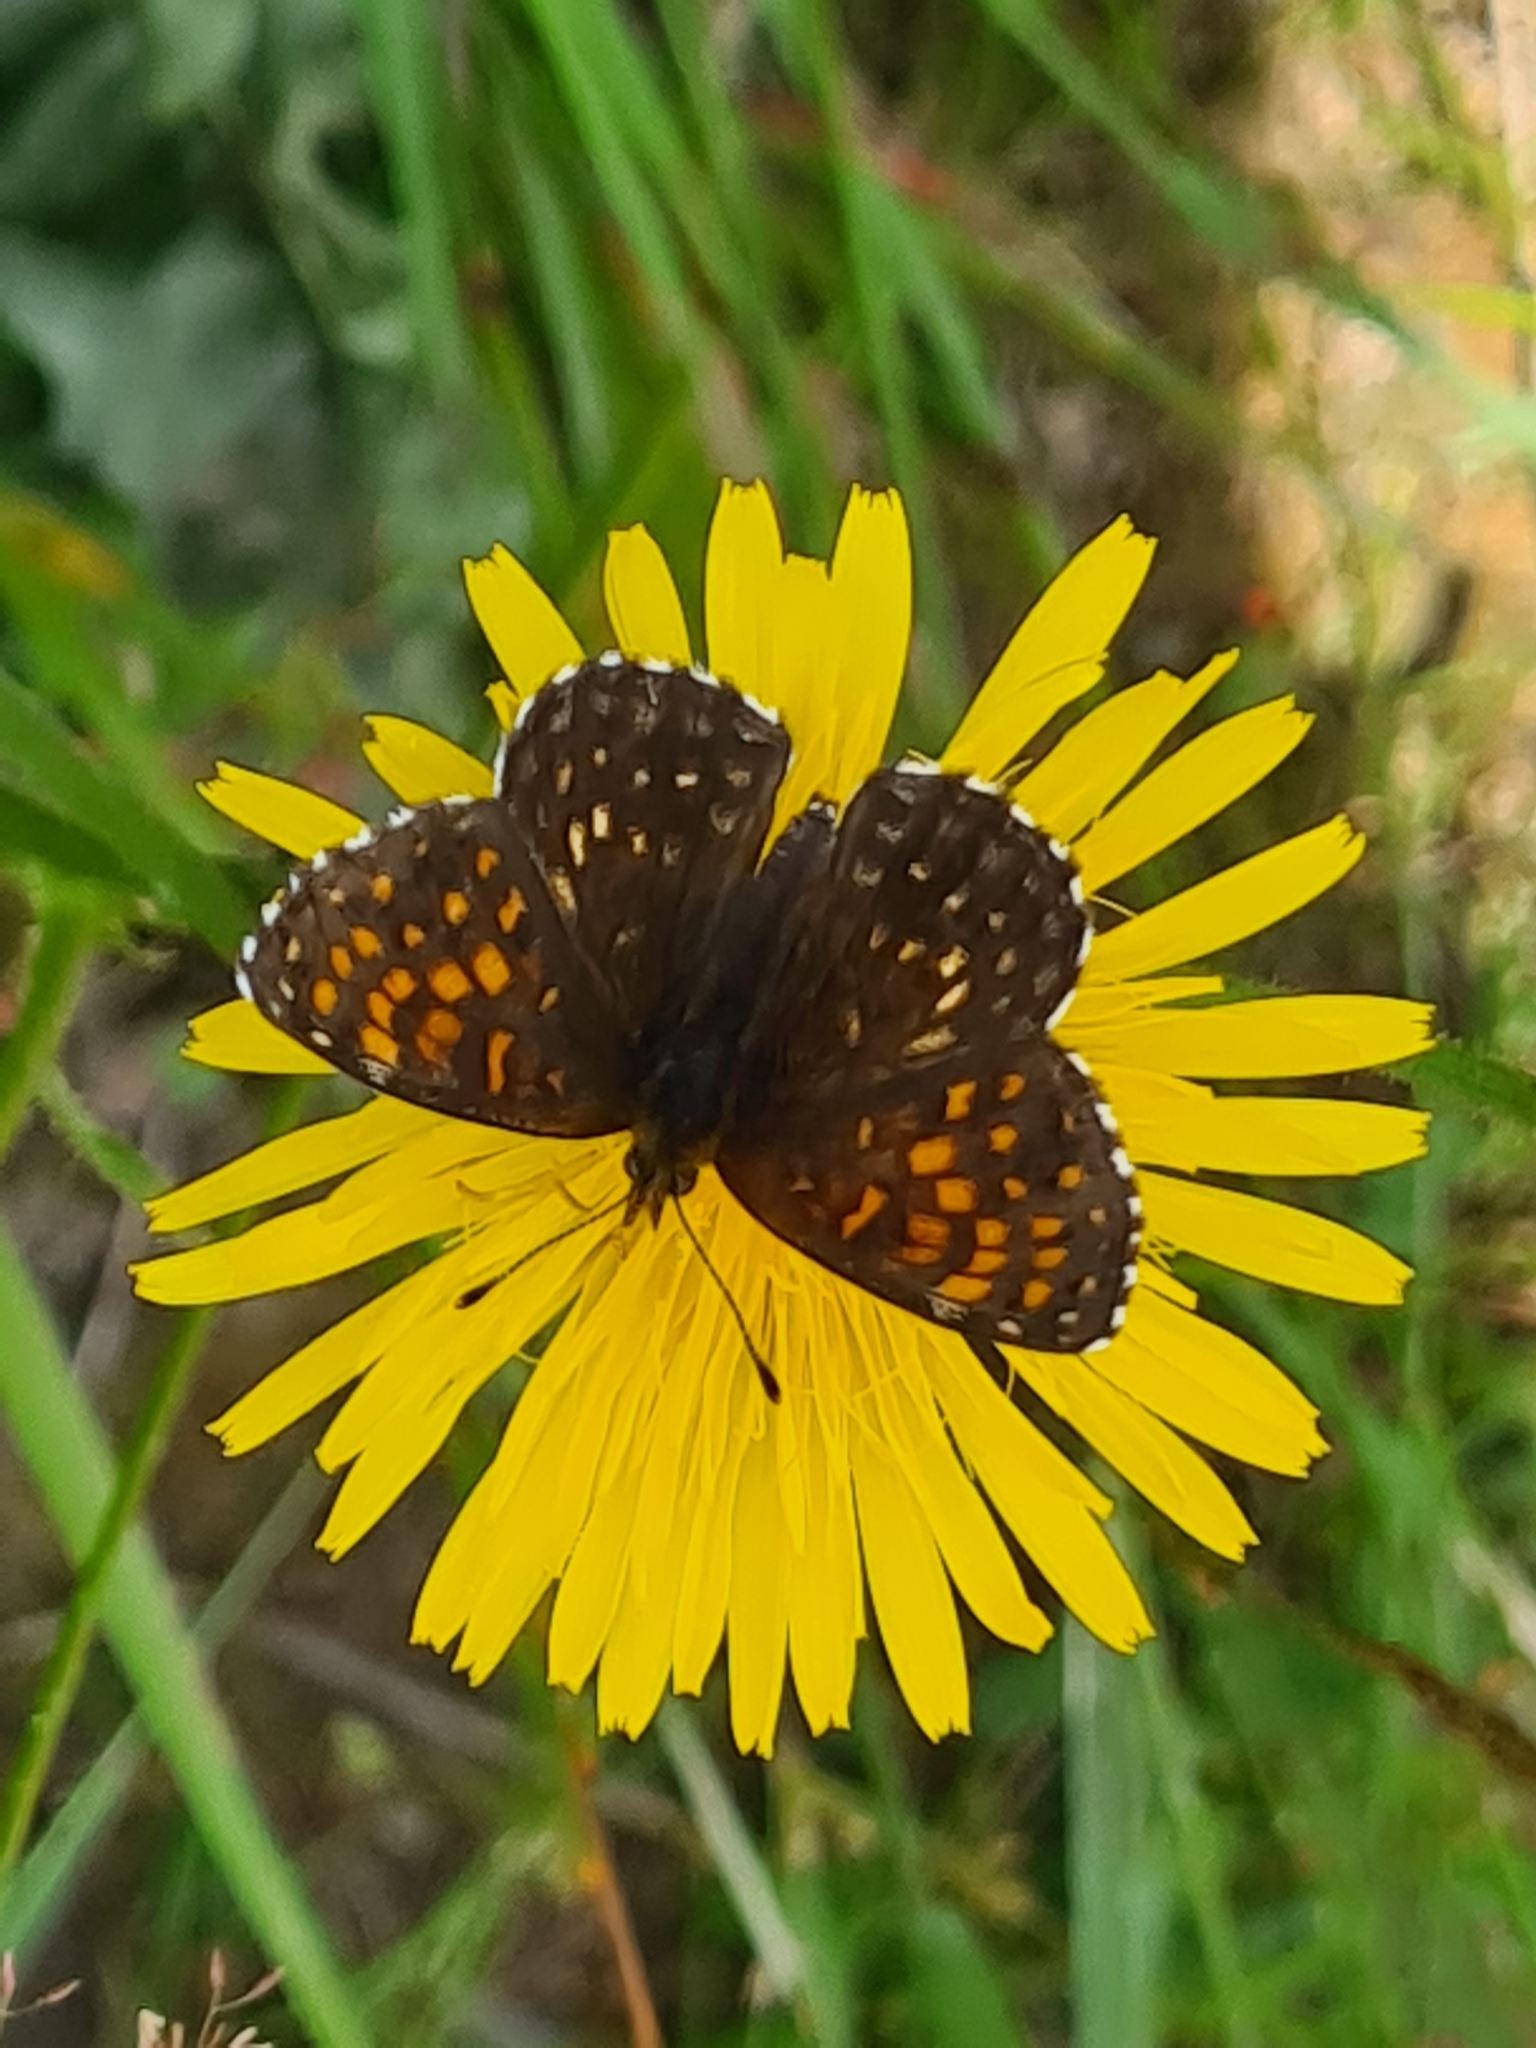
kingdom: Animalia
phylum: Arthropoda
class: Insecta
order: Lepidoptera
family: Nymphalidae
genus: Melitaea
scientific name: Melitaea diamina
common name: False heath fritillary
